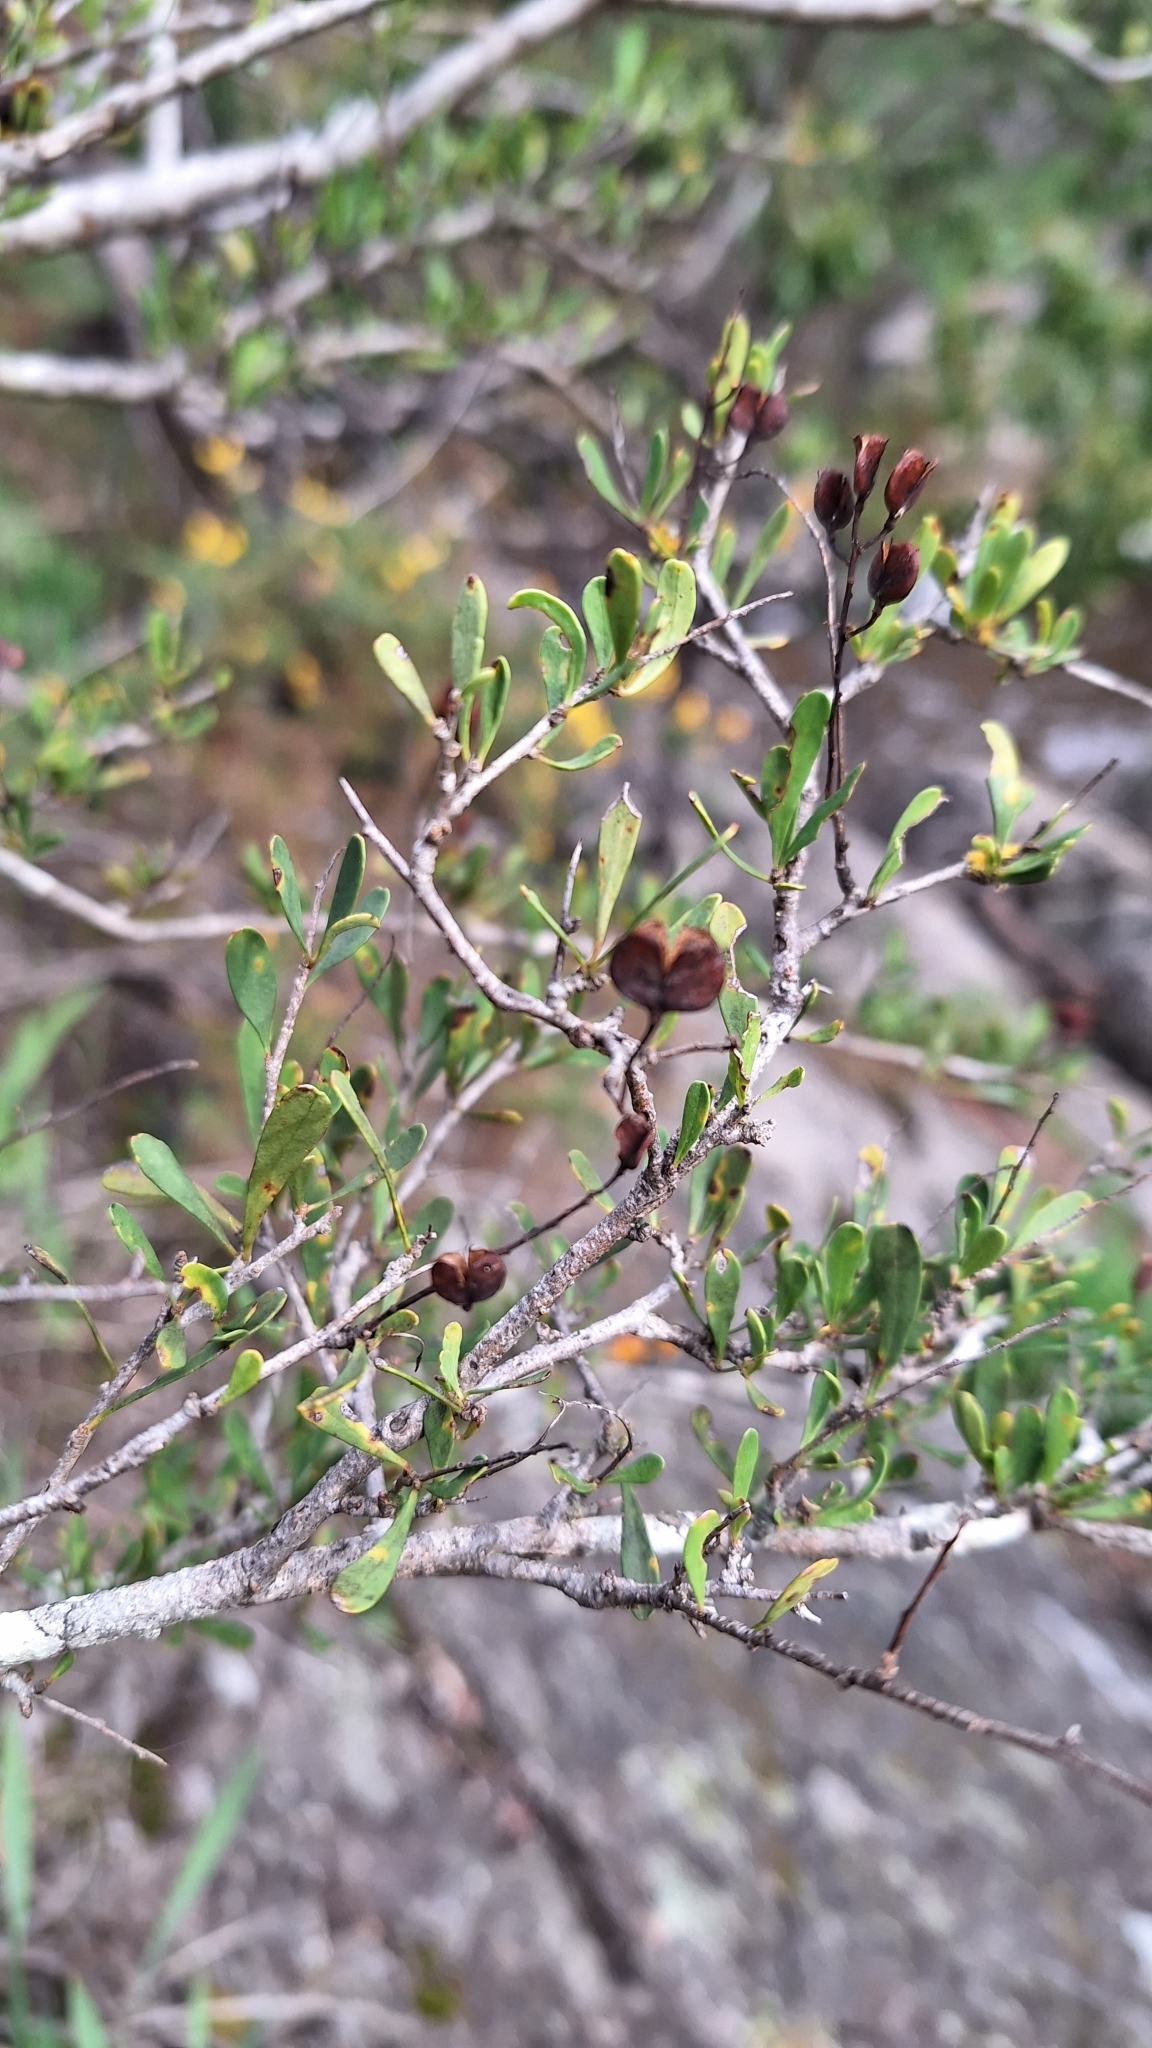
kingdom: Plantae
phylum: Tracheophyta
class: Magnoliopsida
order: Apiales
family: Pittosporaceae
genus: Bursaria
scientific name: Bursaria spinosa
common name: Australian blackthorn
